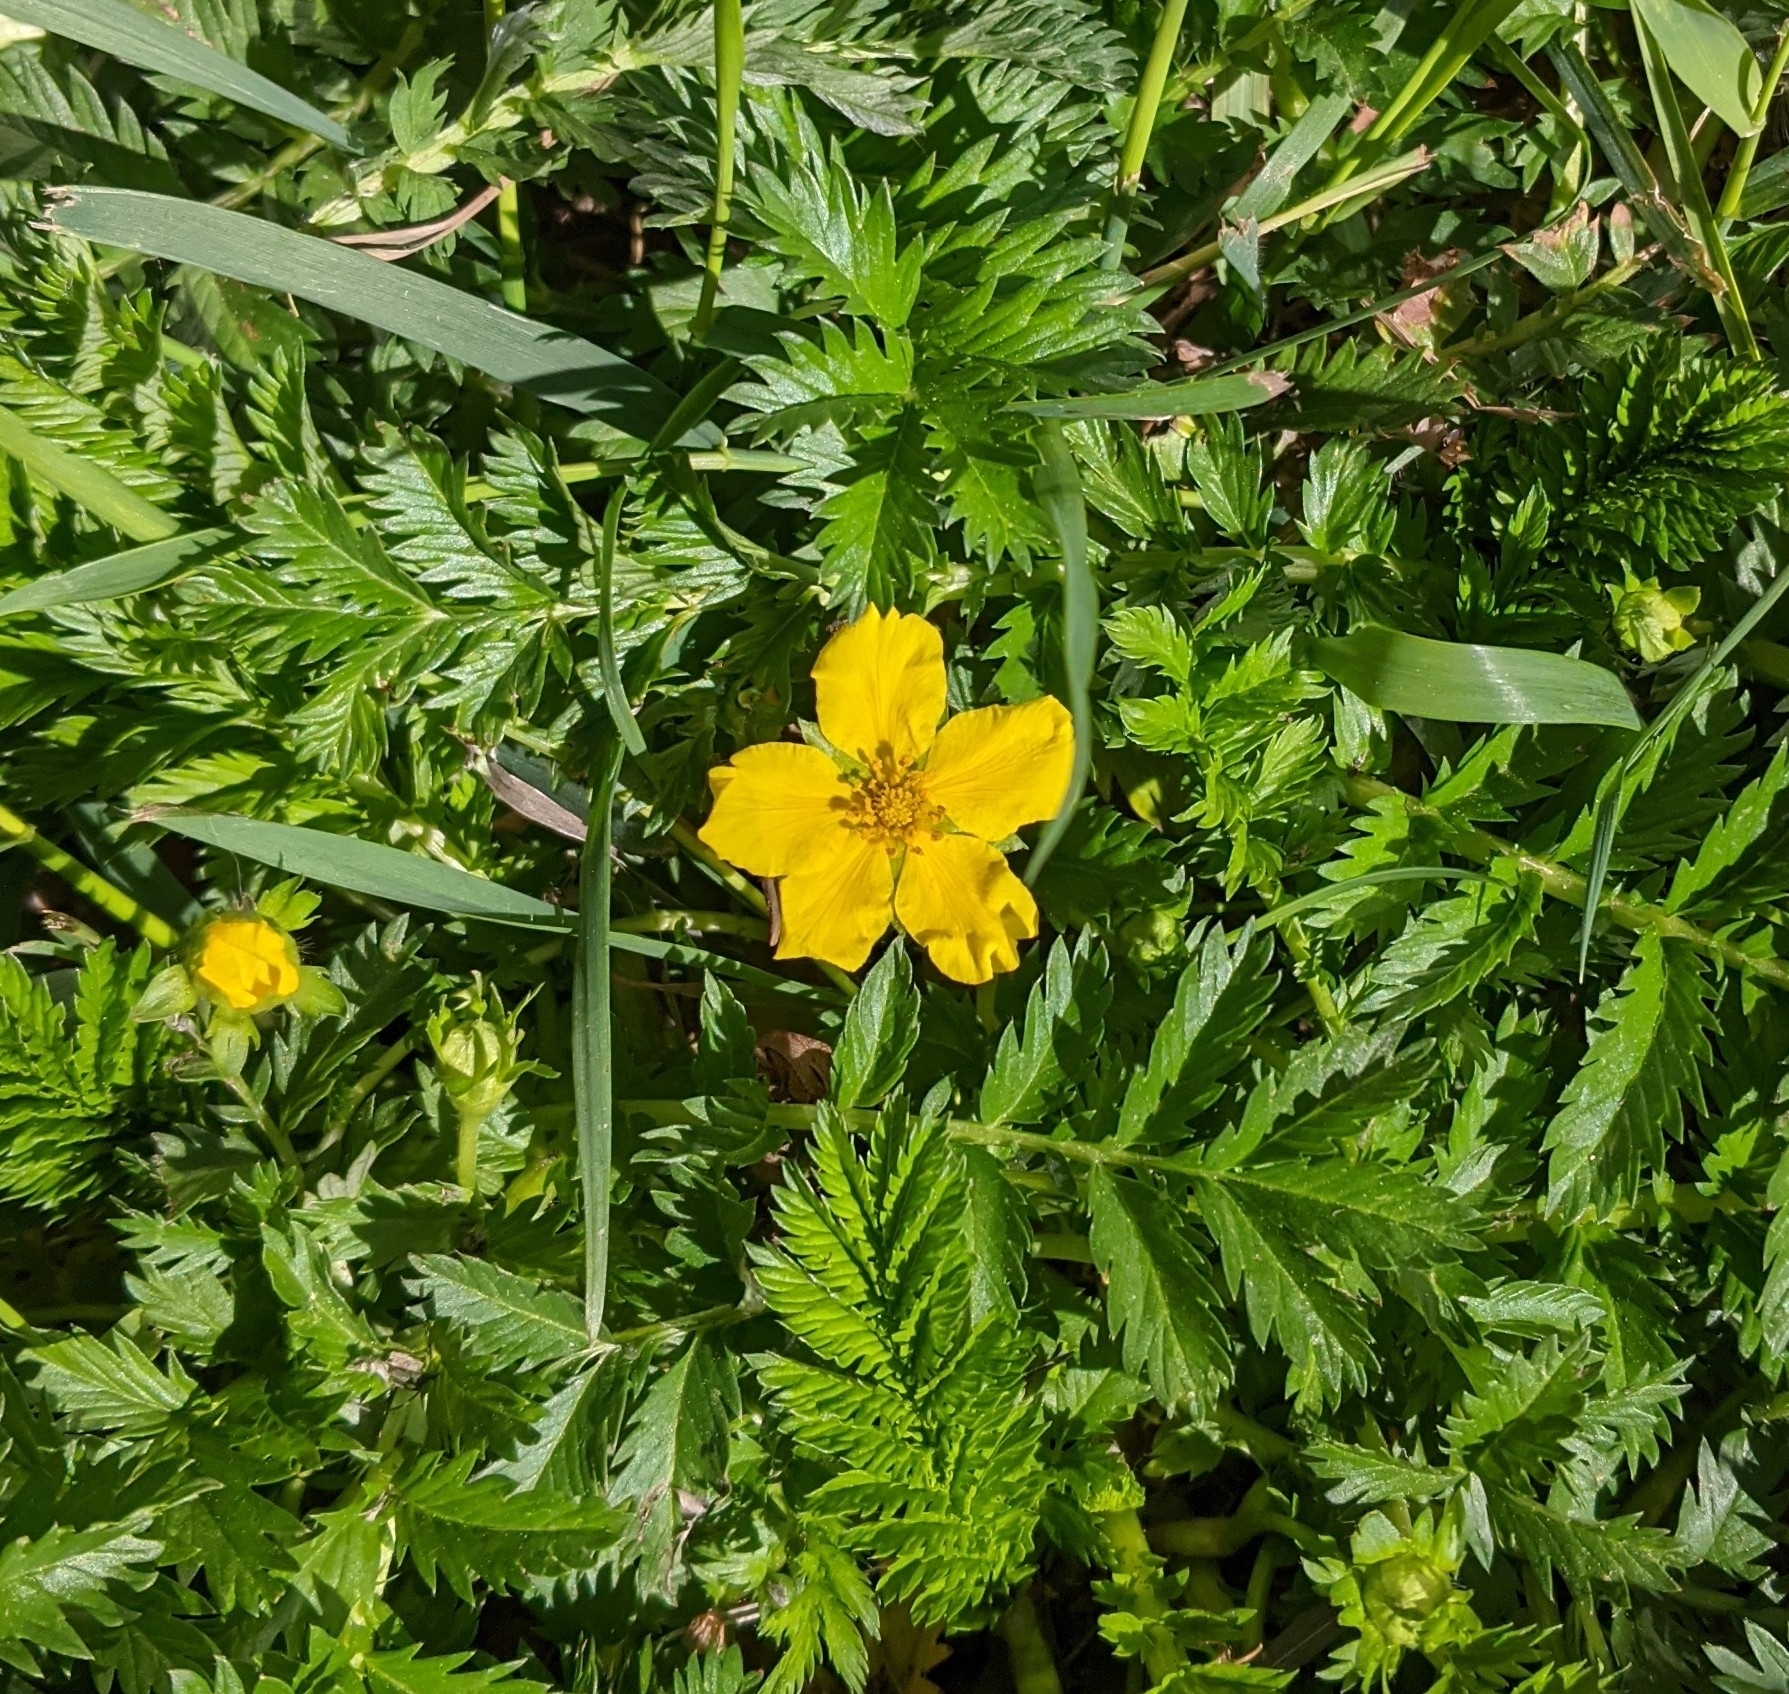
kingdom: Plantae
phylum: Tracheophyta
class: Magnoliopsida
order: Rosales
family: Rosaceae
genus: Argentina
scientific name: Argentina anserina
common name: Common silverweed
